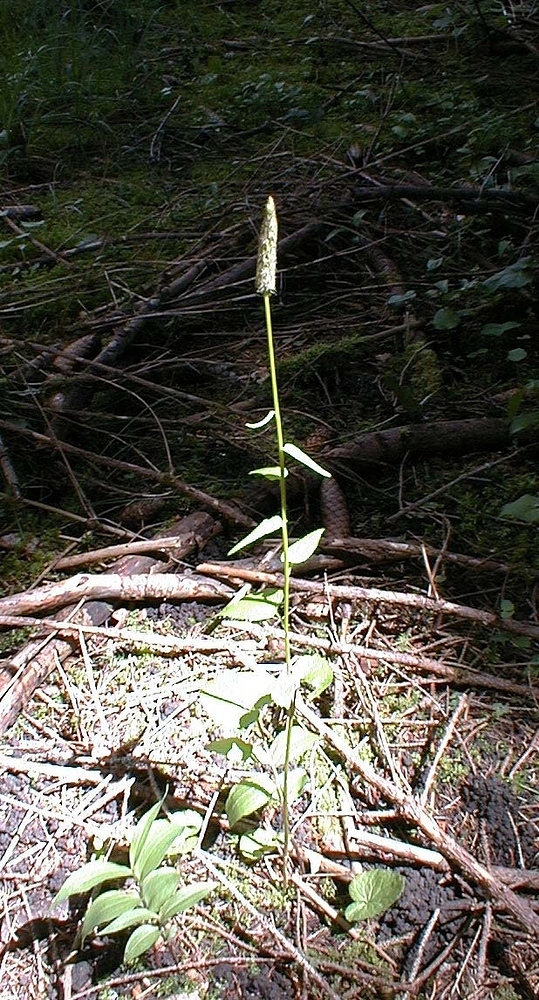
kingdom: Plantae
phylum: Tracheophyta
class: Magnoliopsida
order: Asterales
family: Campanulaceae
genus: Phyteuma
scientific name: Phyteuma spicatum
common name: Spiked rampion
